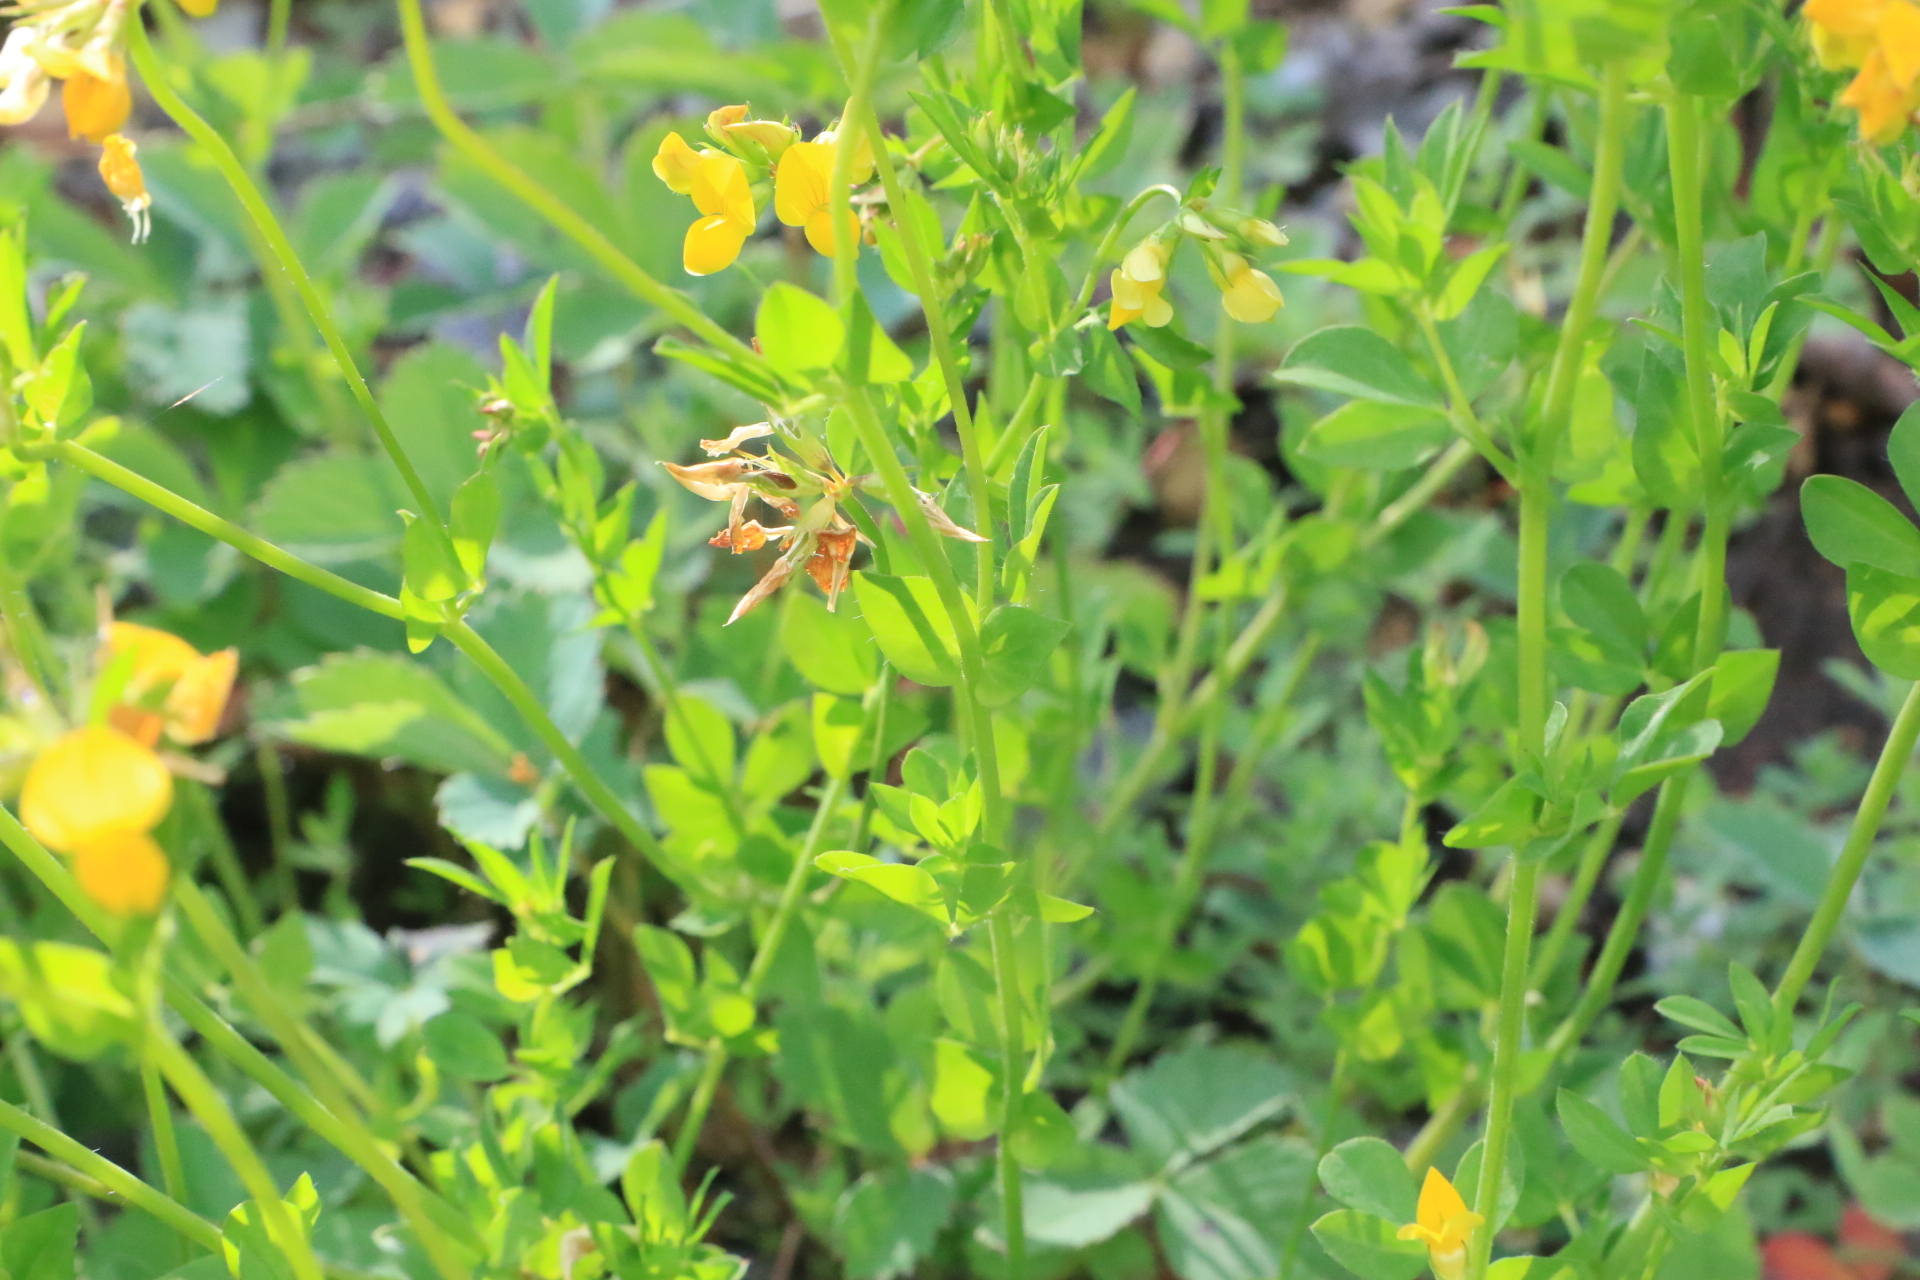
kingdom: Plantae
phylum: Tracheophyta
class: Magnoliopsida
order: Fabales
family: Fabaceae
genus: Lotus
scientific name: Lotus corniculatus
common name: Common bird's-foot-trefoil
